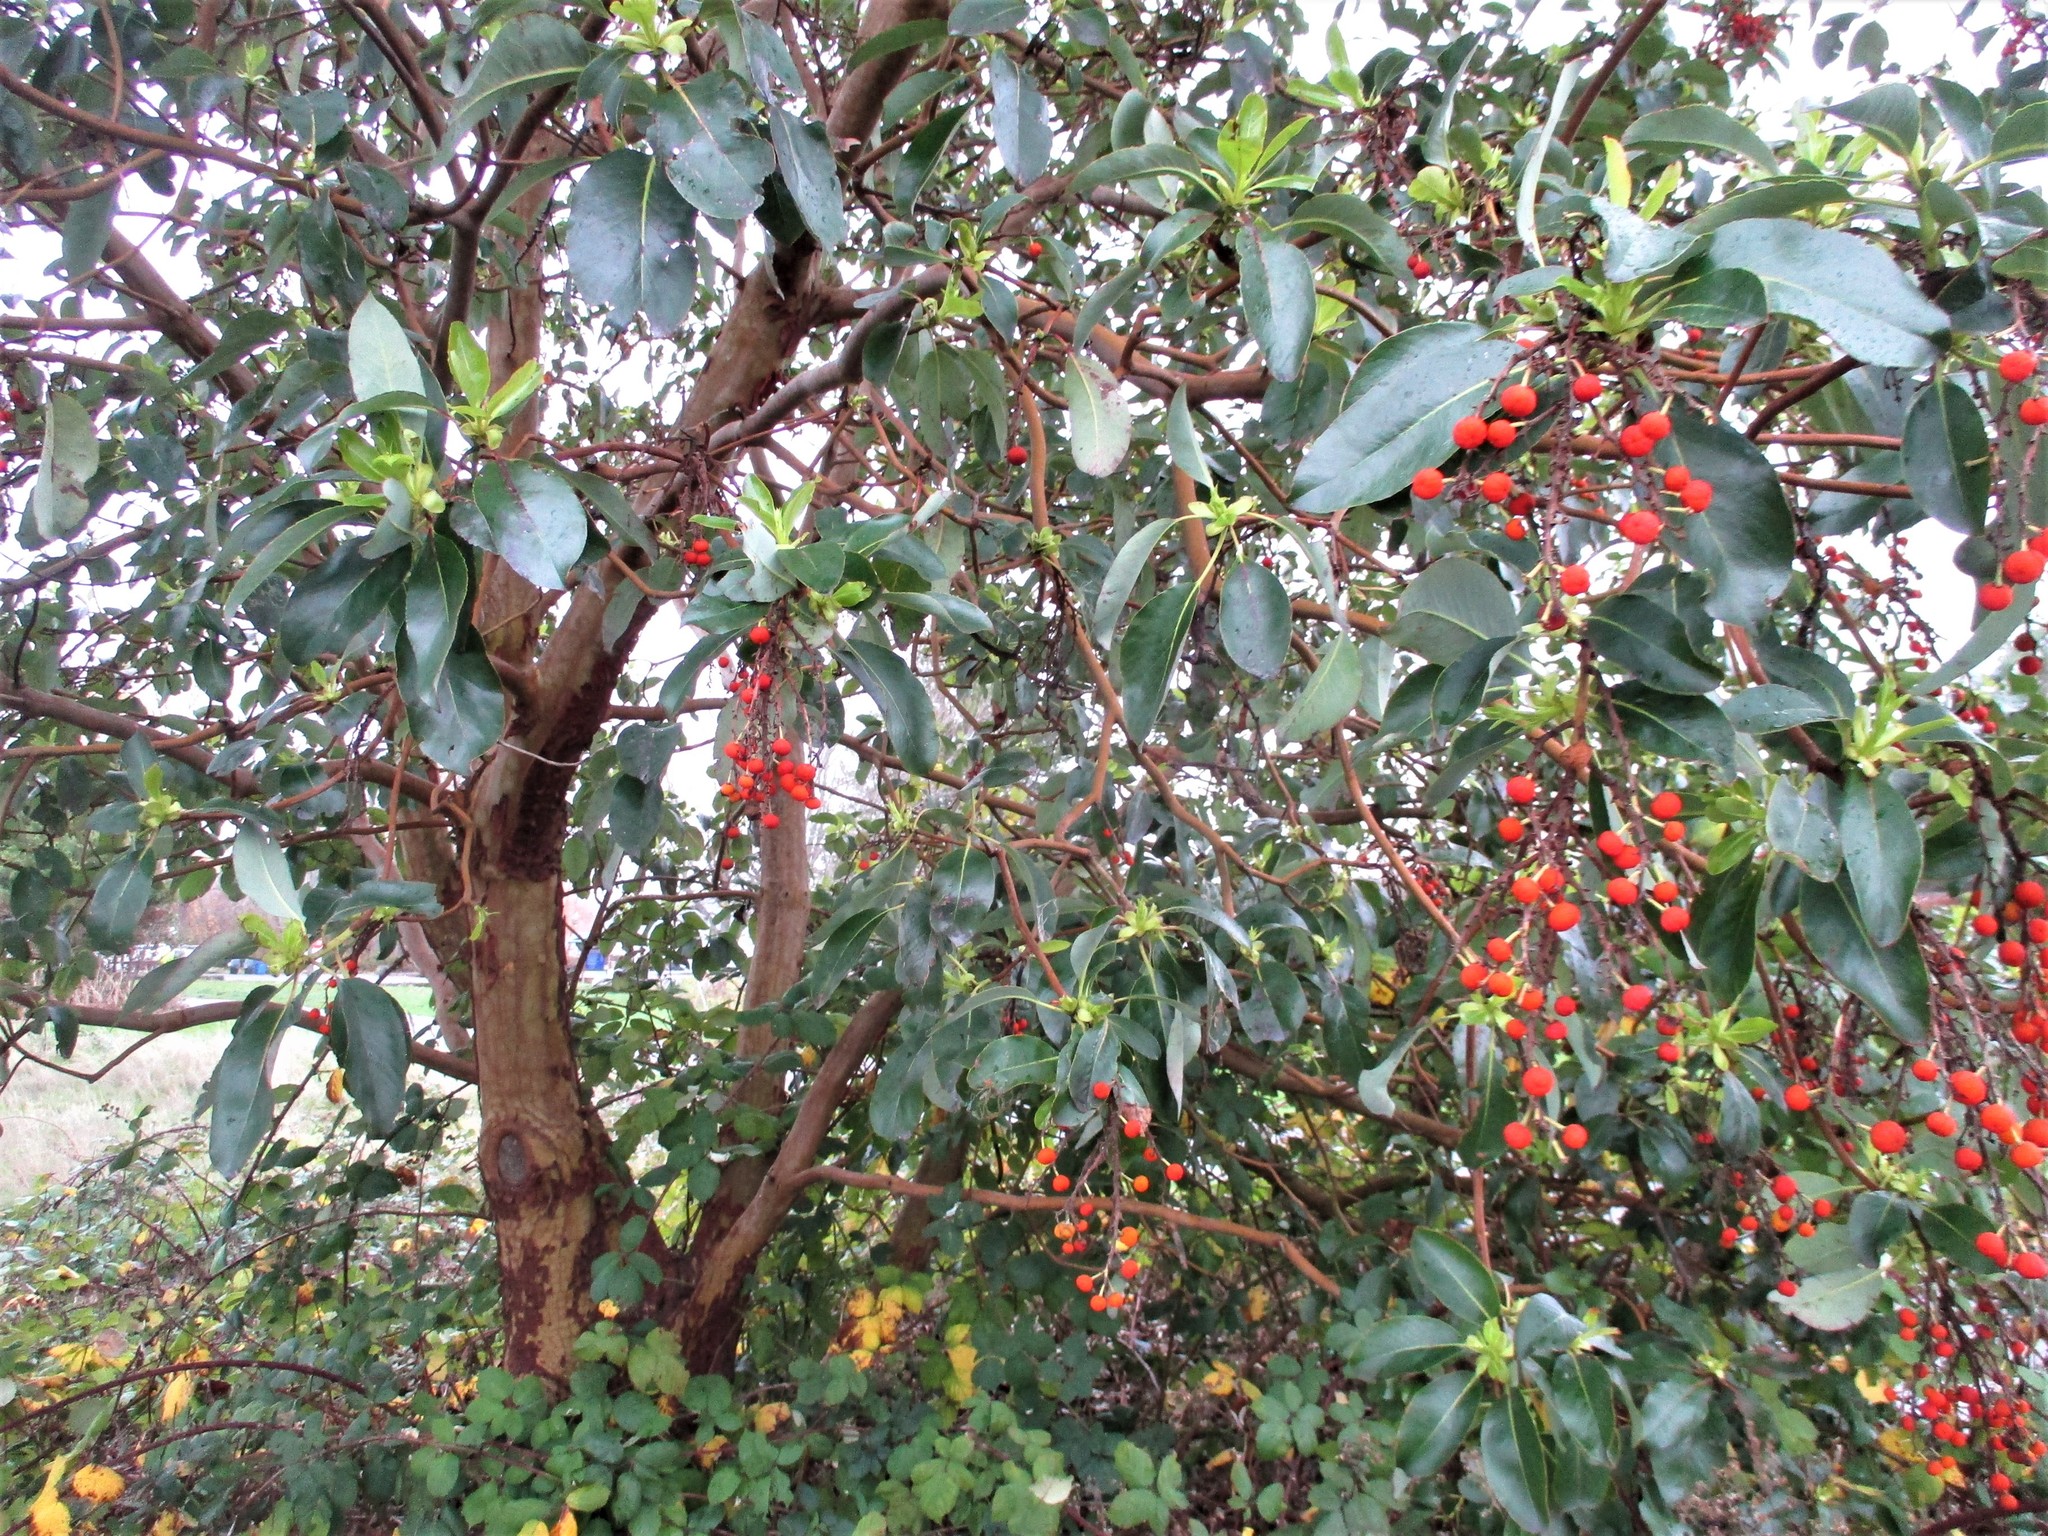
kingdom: Plantae
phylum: Tracheophyta
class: Magnoliopsida
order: Ericales
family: Ericaceae
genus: Arbutus
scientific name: Arbutus menziesii
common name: Pacific madrone
